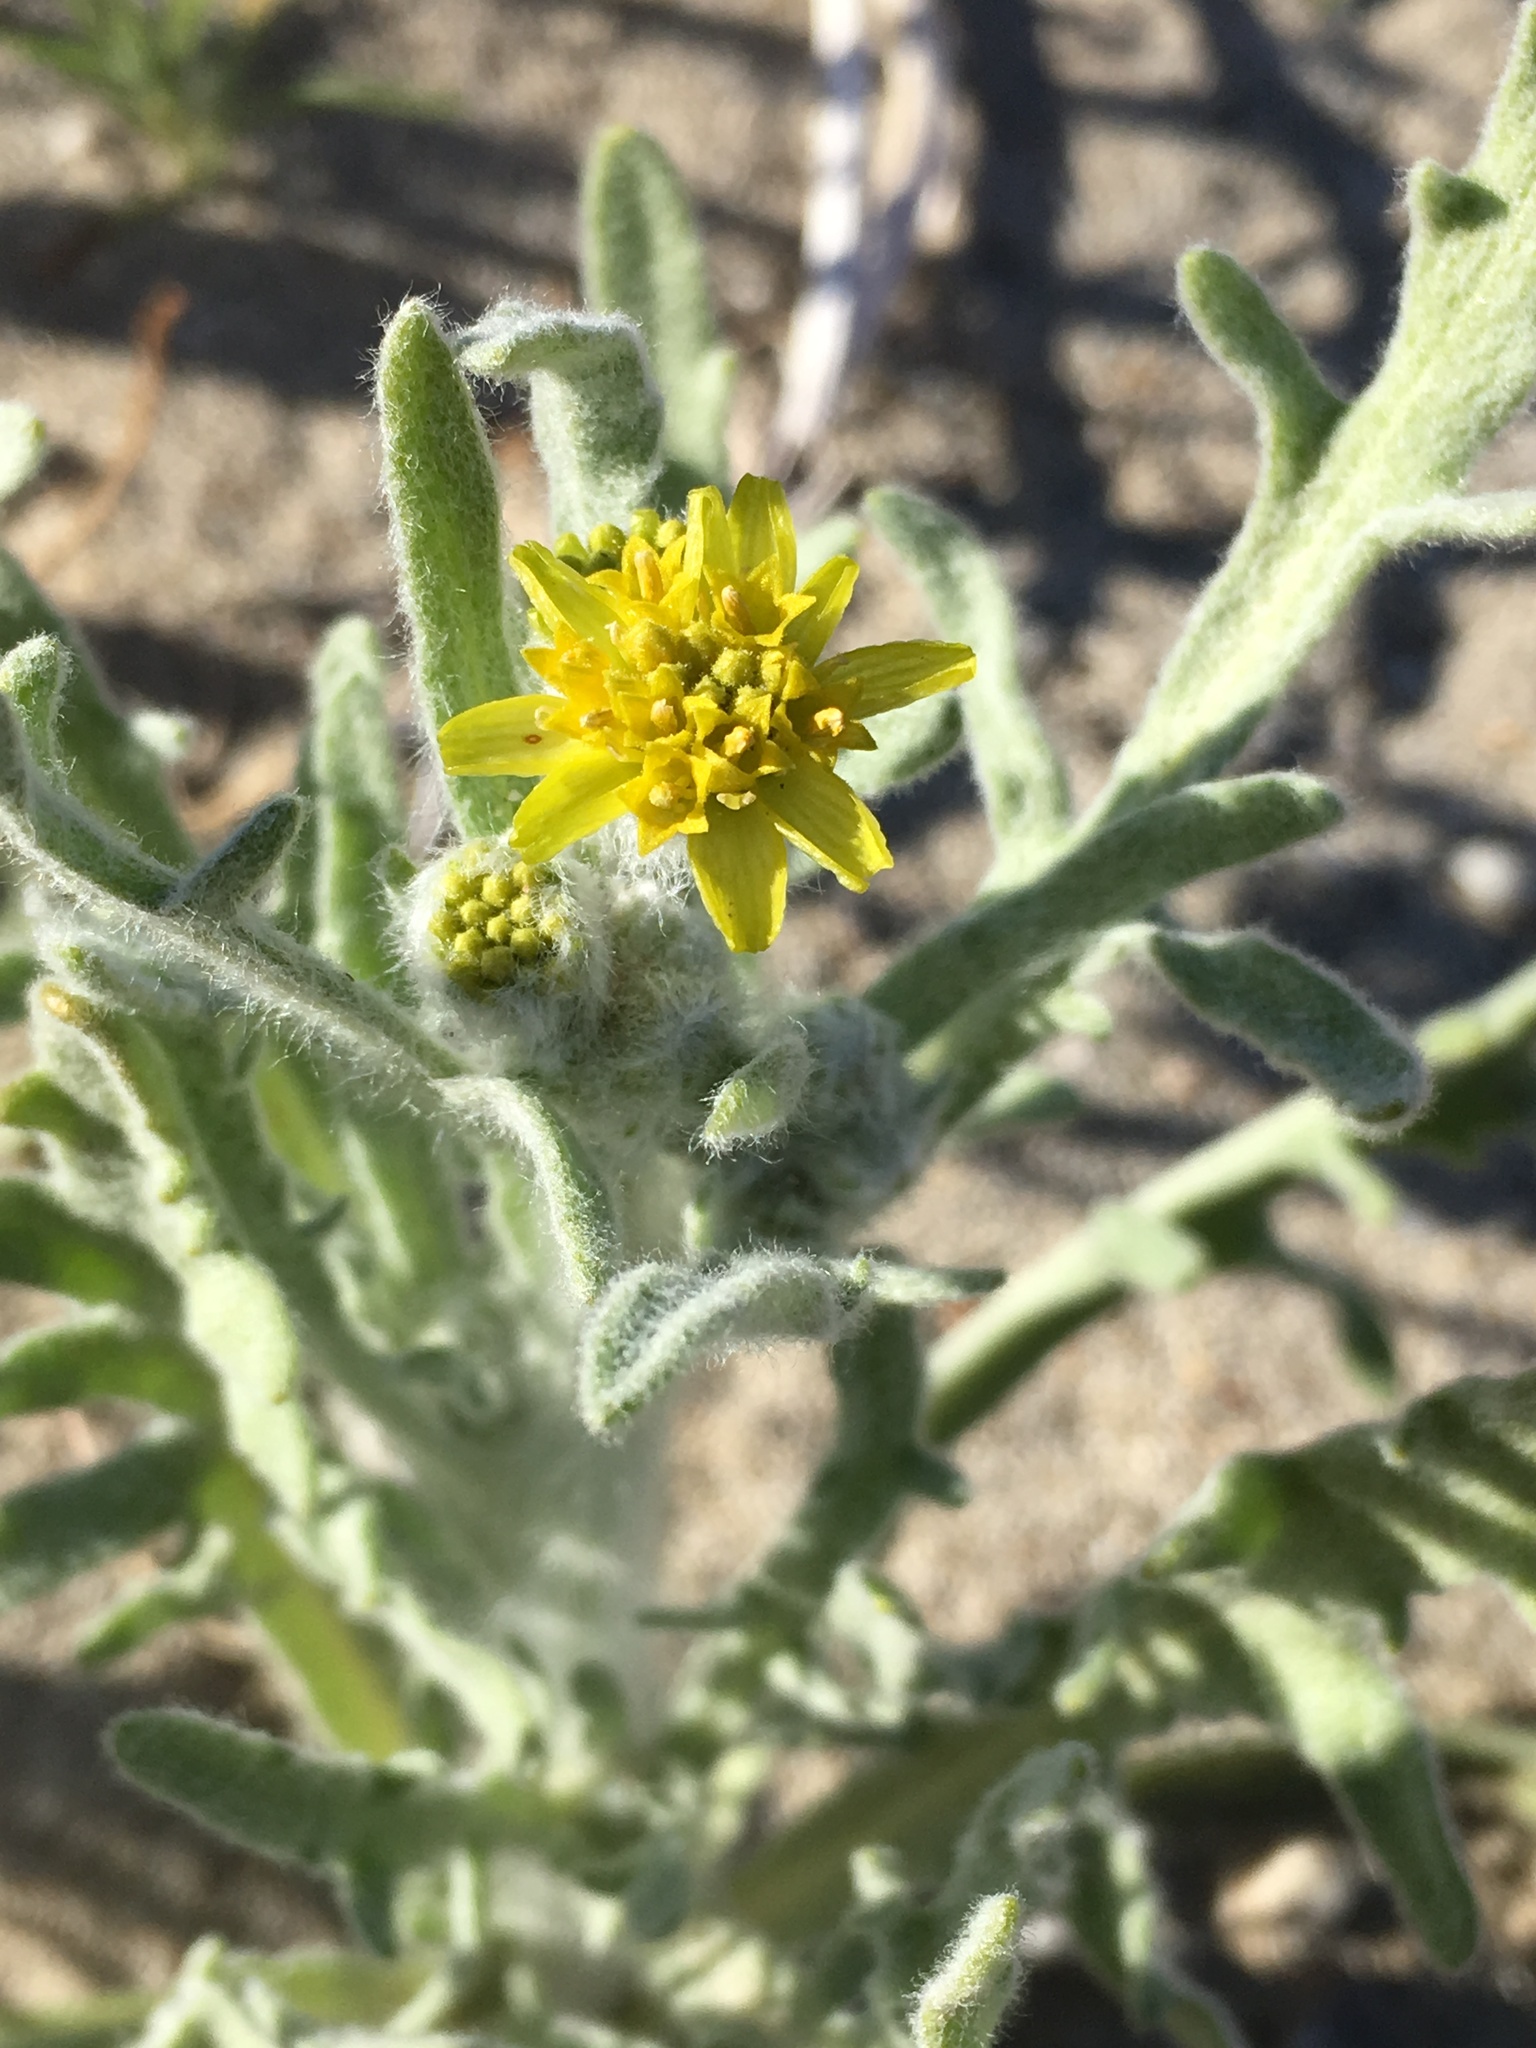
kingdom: Plantae
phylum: Tracheophyta
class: Magnoliopsida
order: Asterales
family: Asteraceae
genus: Baileya
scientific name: Baileya pauciradiata
